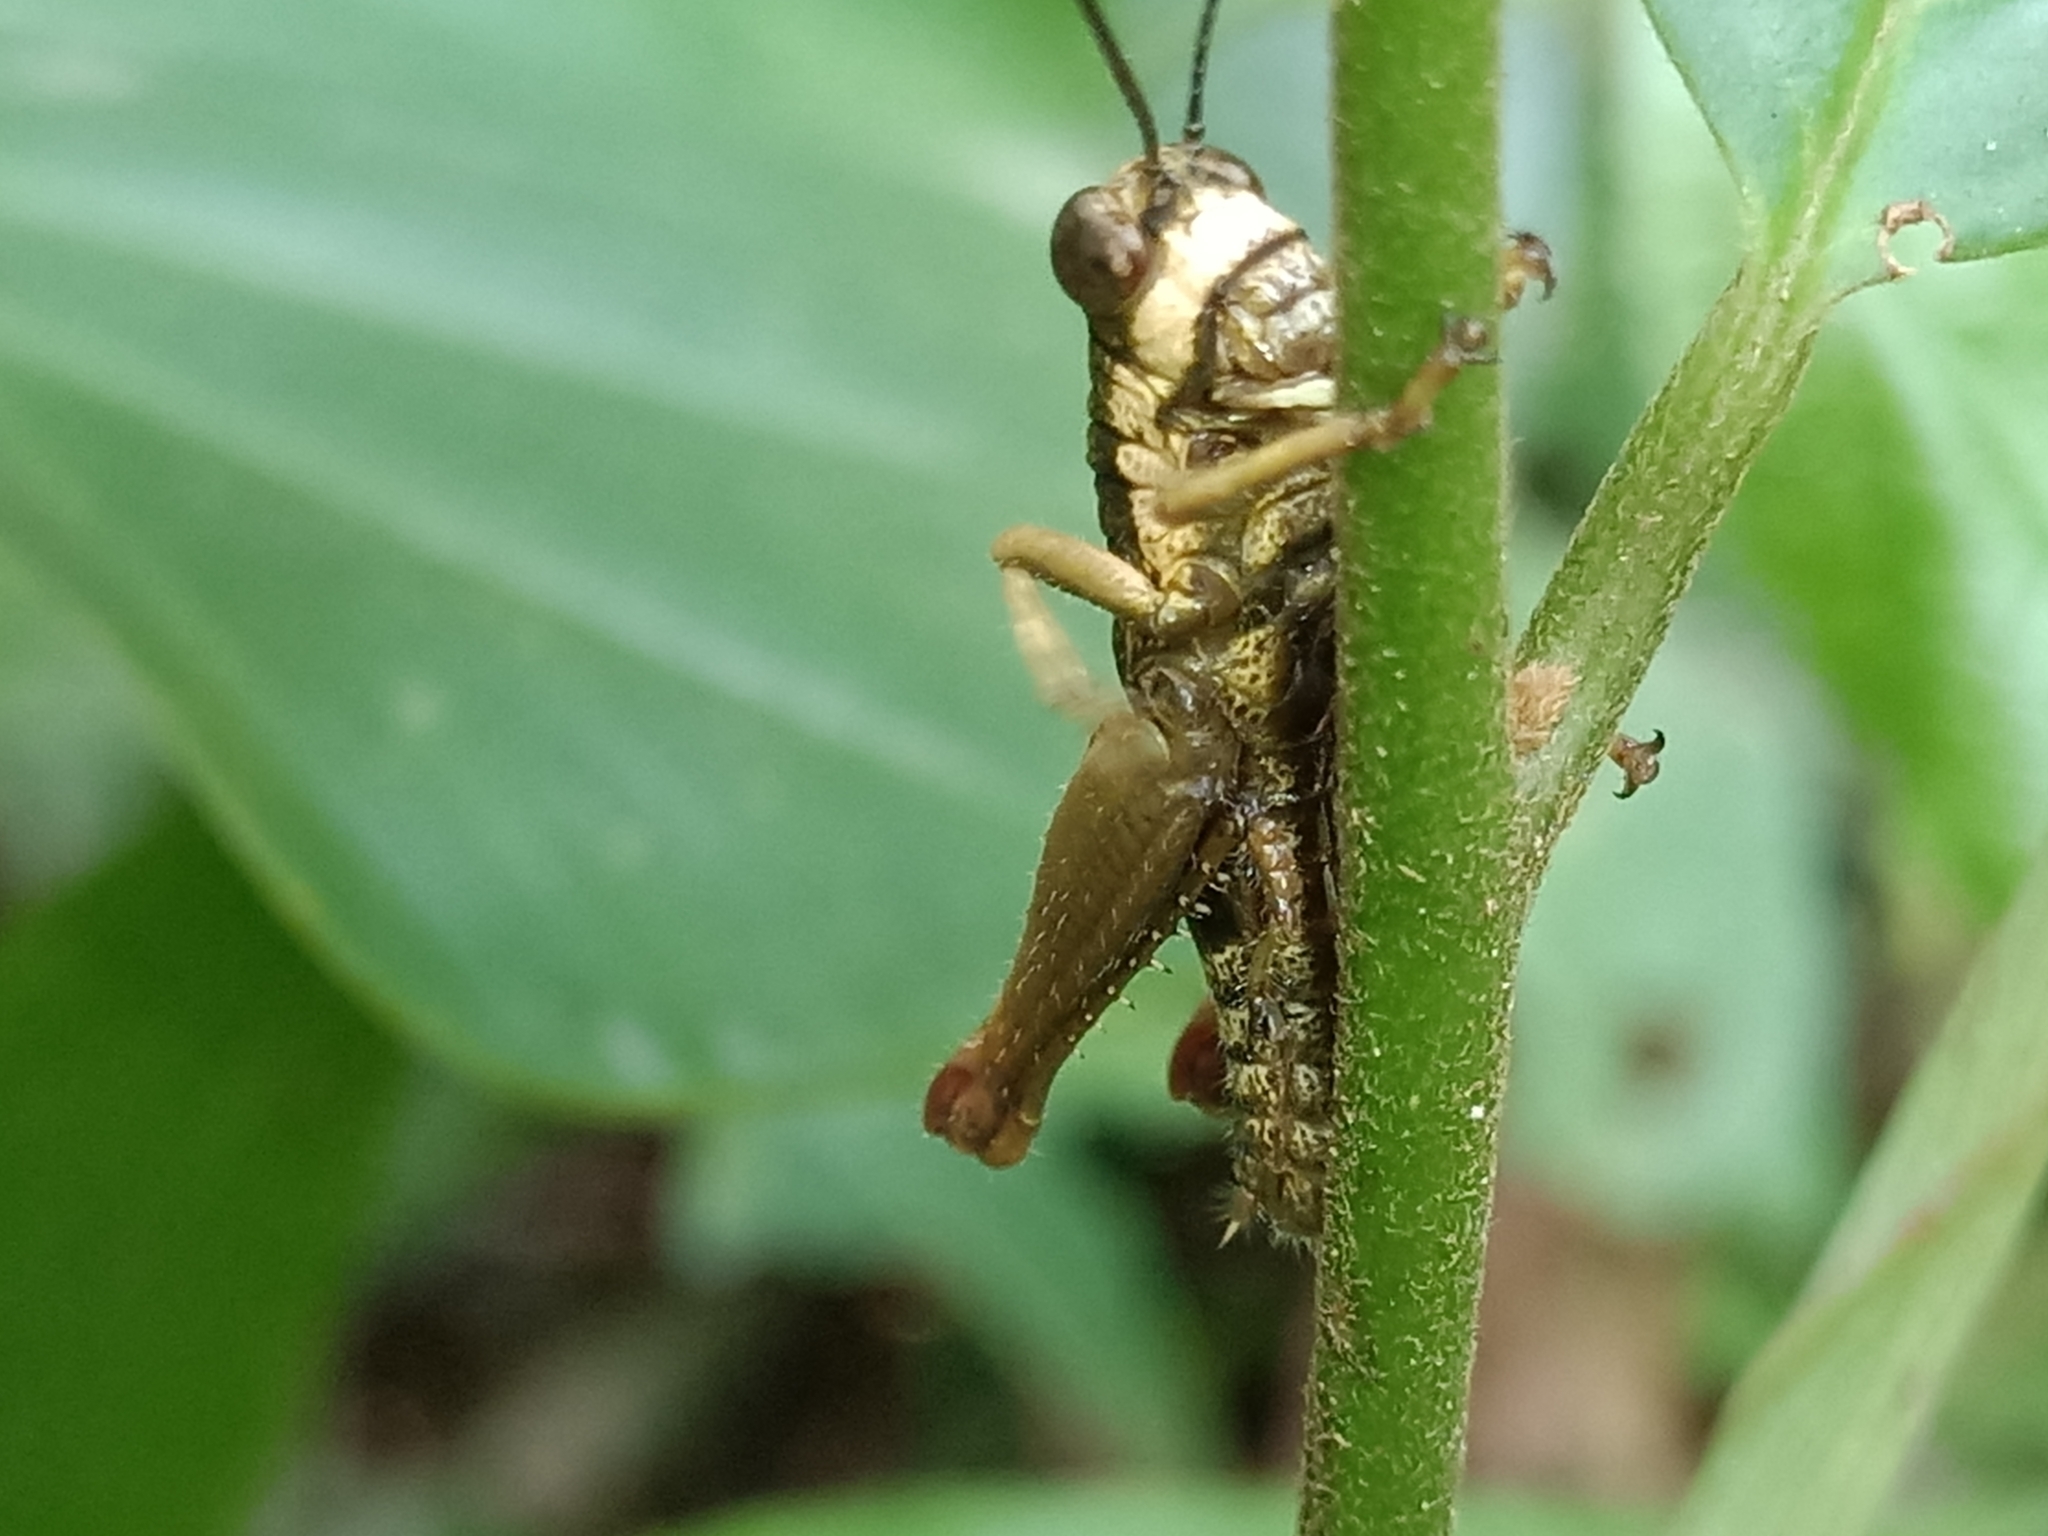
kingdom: Animalia
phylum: Arthropoda
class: Insecta
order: Orthoptera
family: Acrididae
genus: Episomacris
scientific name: Episomacris gruneri
